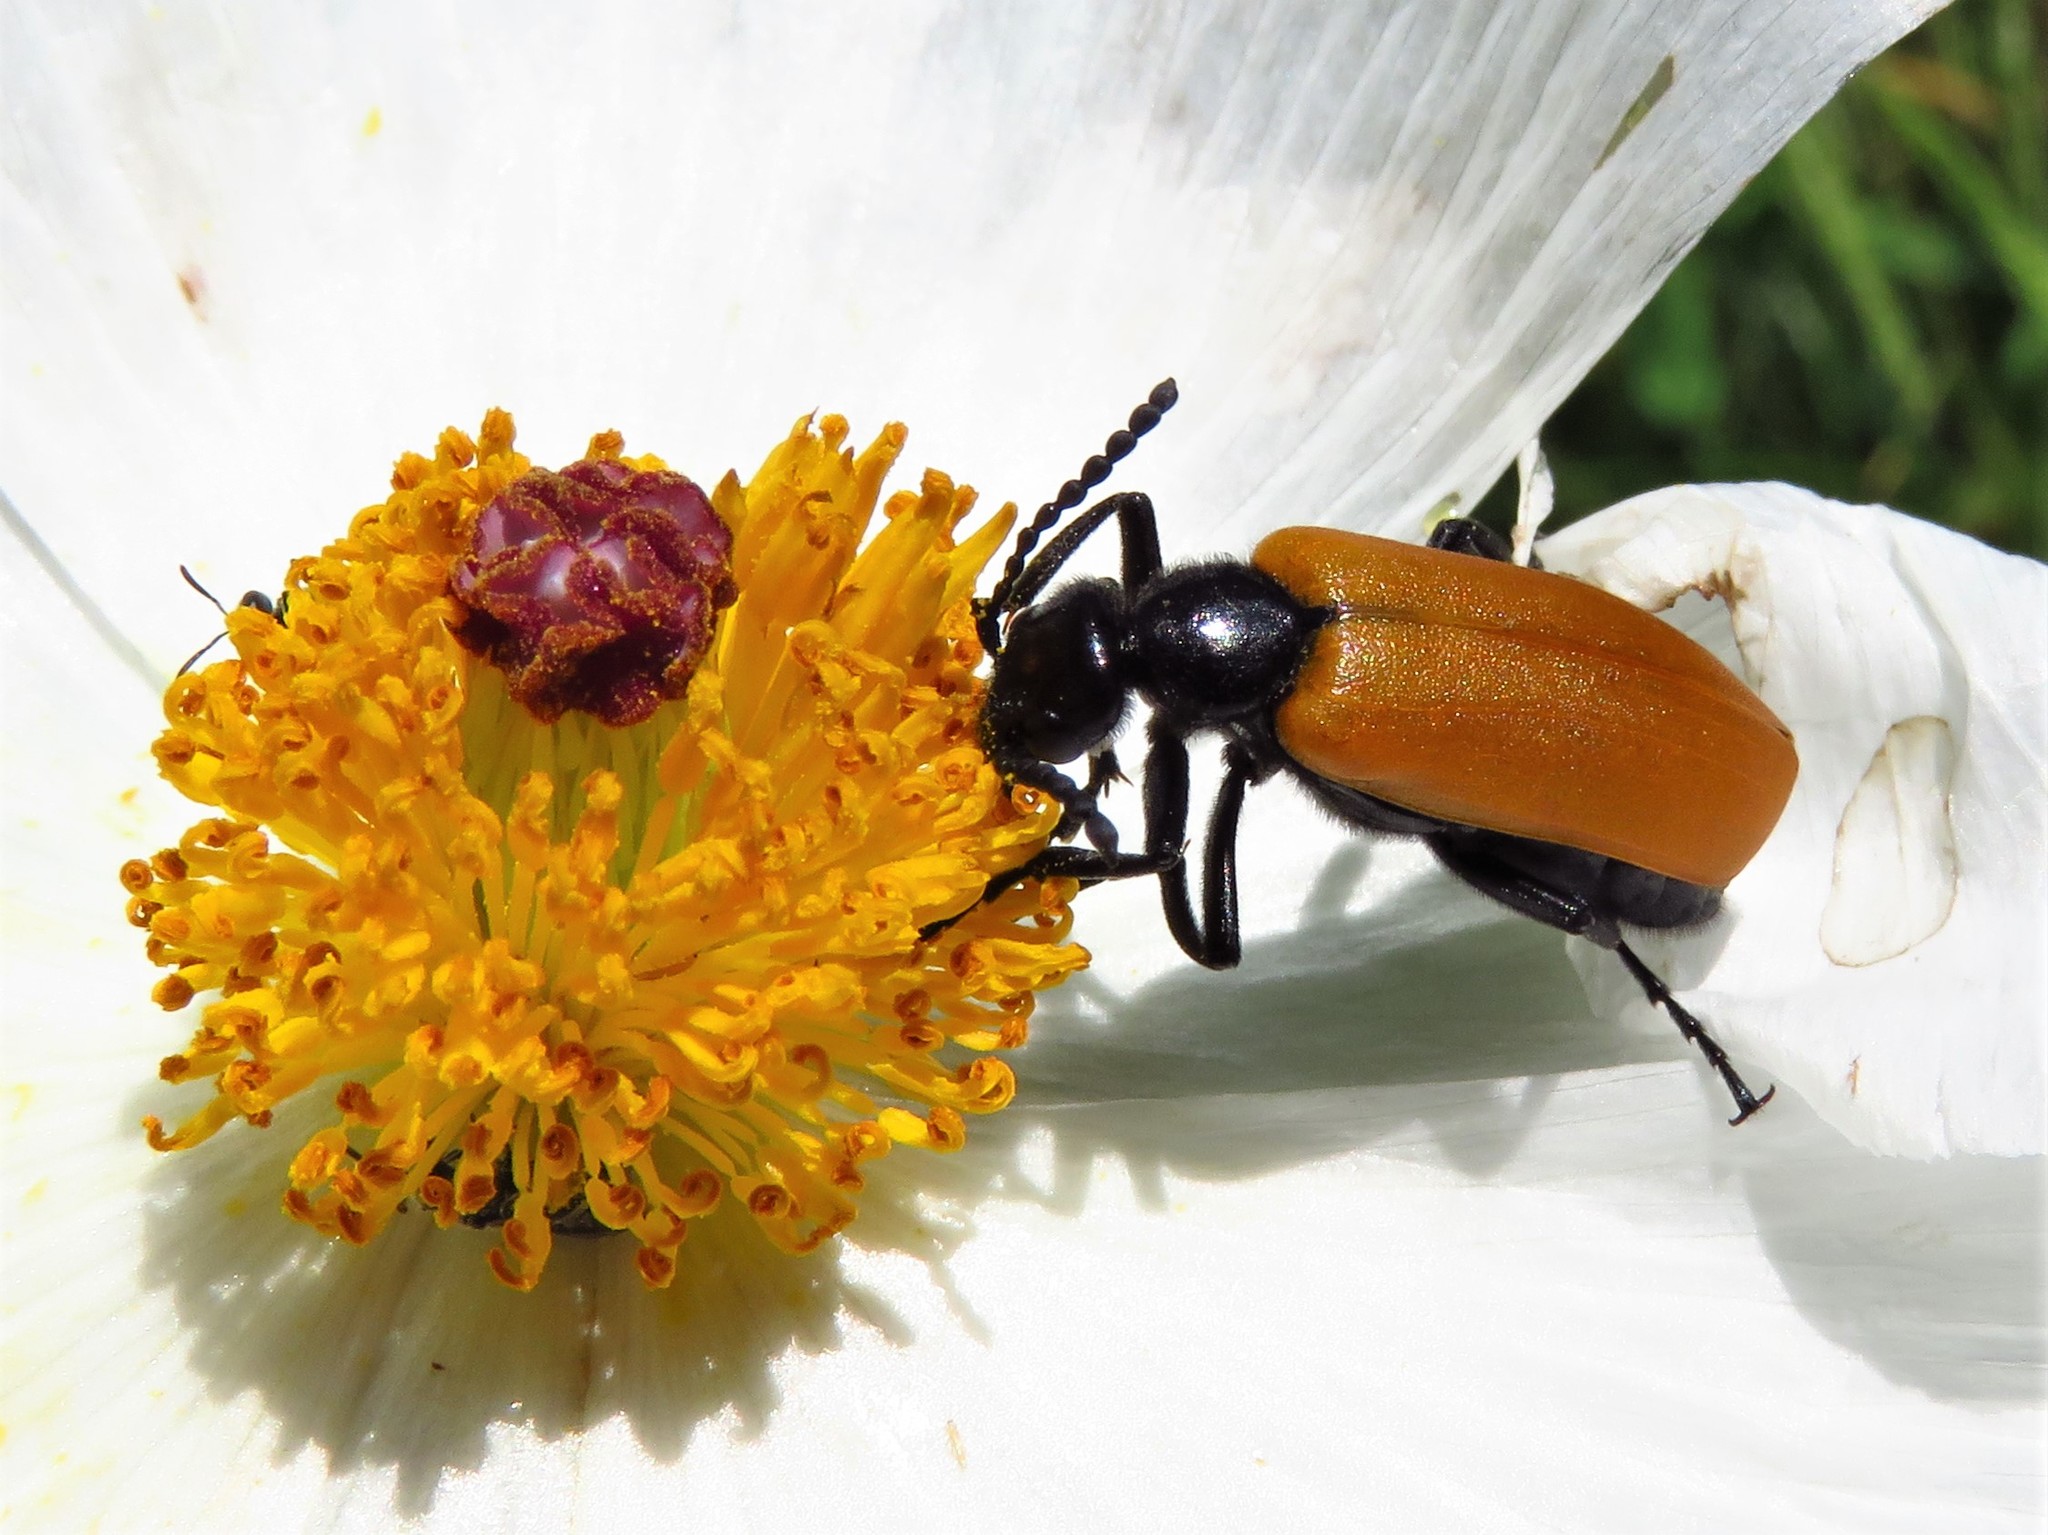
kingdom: Animalia
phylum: Arthropoda
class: Insecta
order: Coleoptera
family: Meloidae
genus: Lytta
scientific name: Lytta fulvipennis
